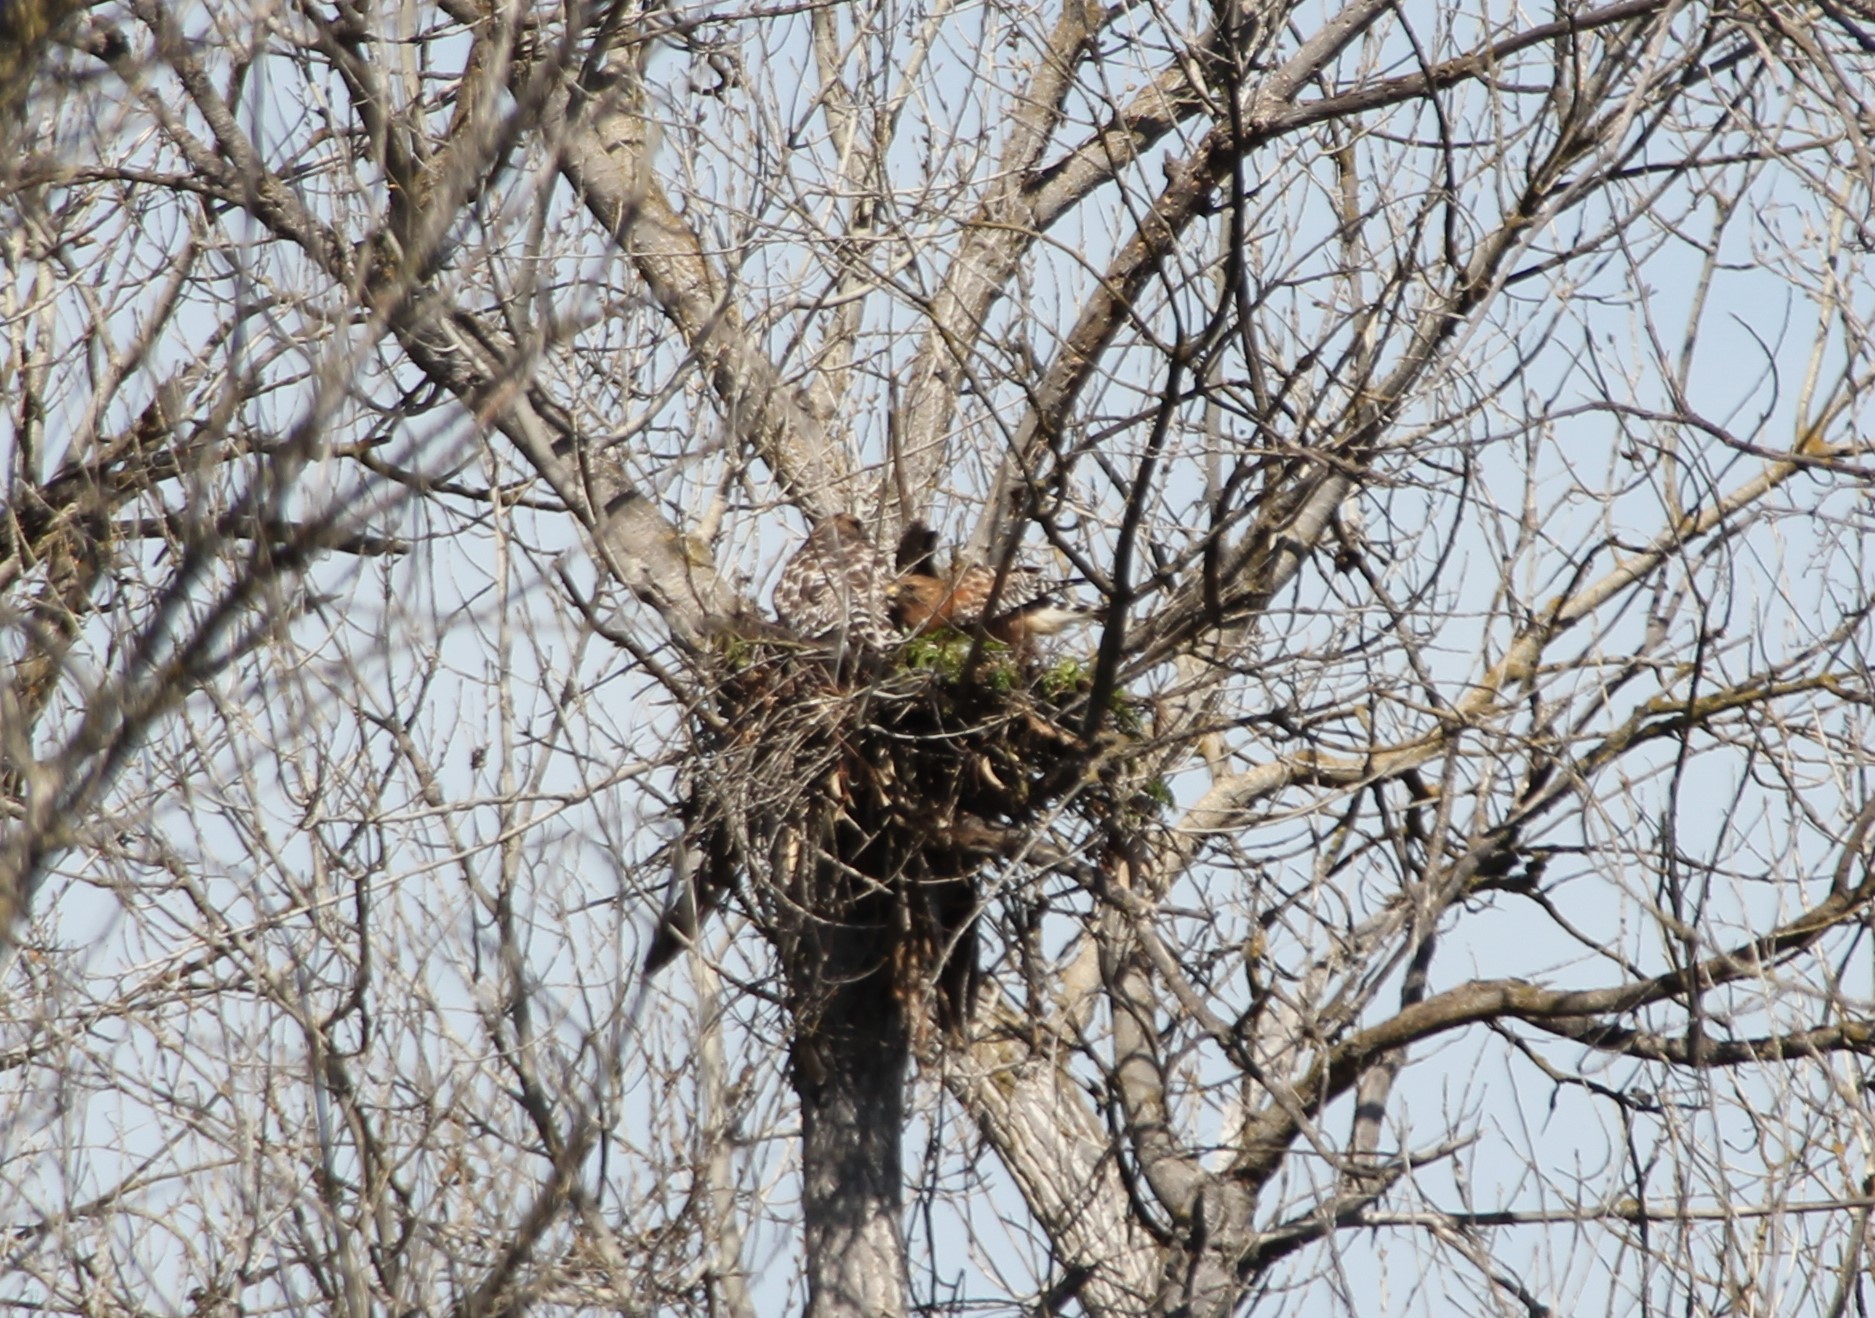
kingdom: Animalia
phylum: Chordata
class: Aves
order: Accipitriformes
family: Accipitridae
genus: Buteo
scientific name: Buteo lineatus
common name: Red-shouldered hawk
